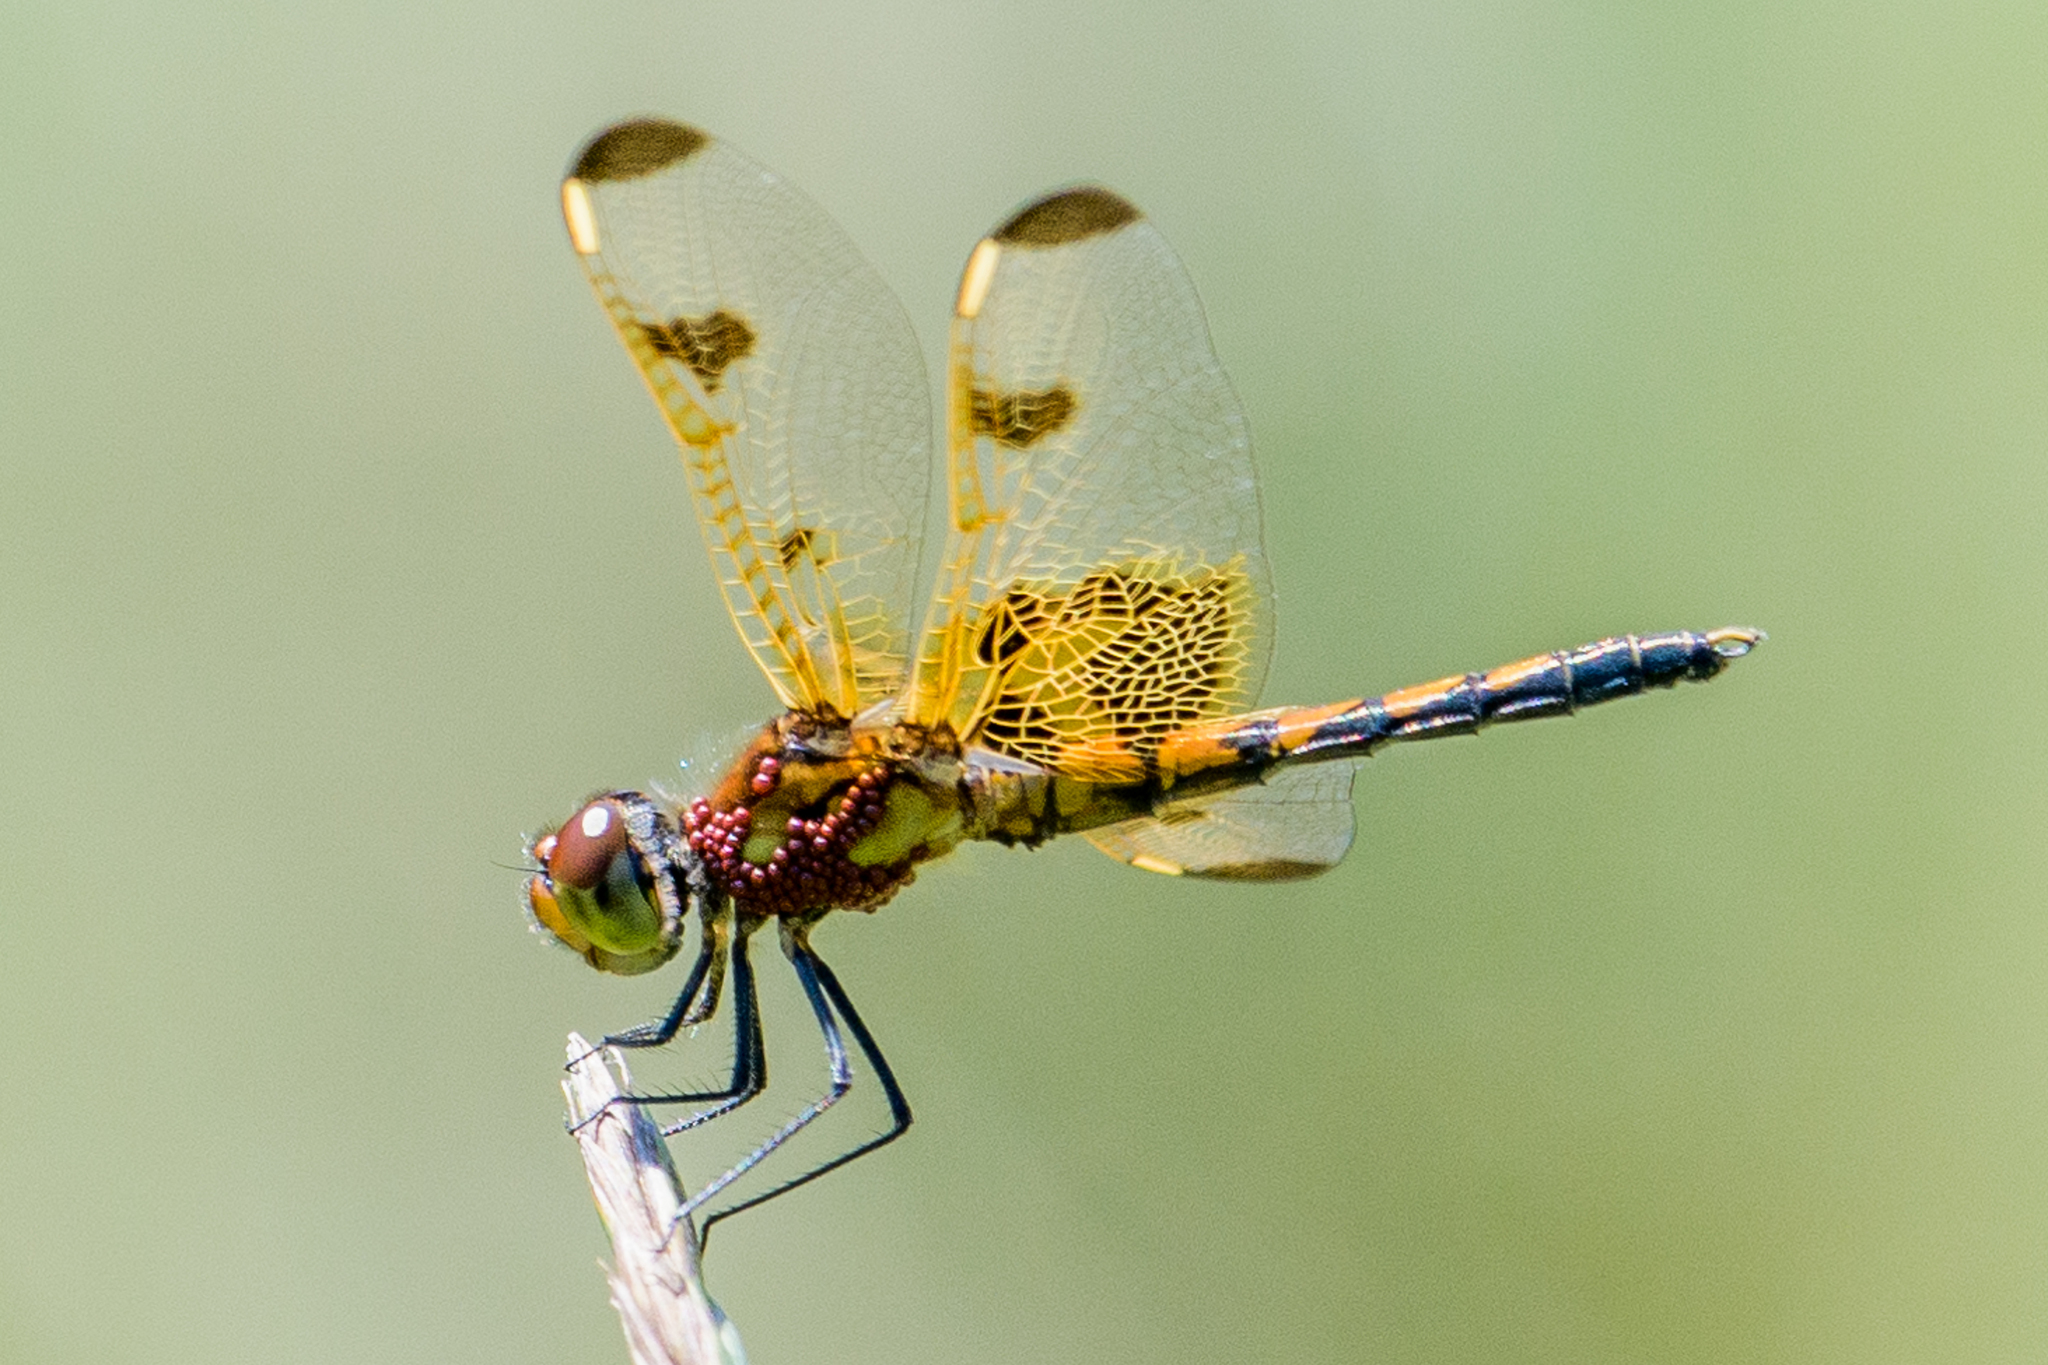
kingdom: Animalia
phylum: Arthropoda
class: Insecta
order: Odonata
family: Libellulidae
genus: Celithemis
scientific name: Celithemis elisa
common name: Calico pennant
